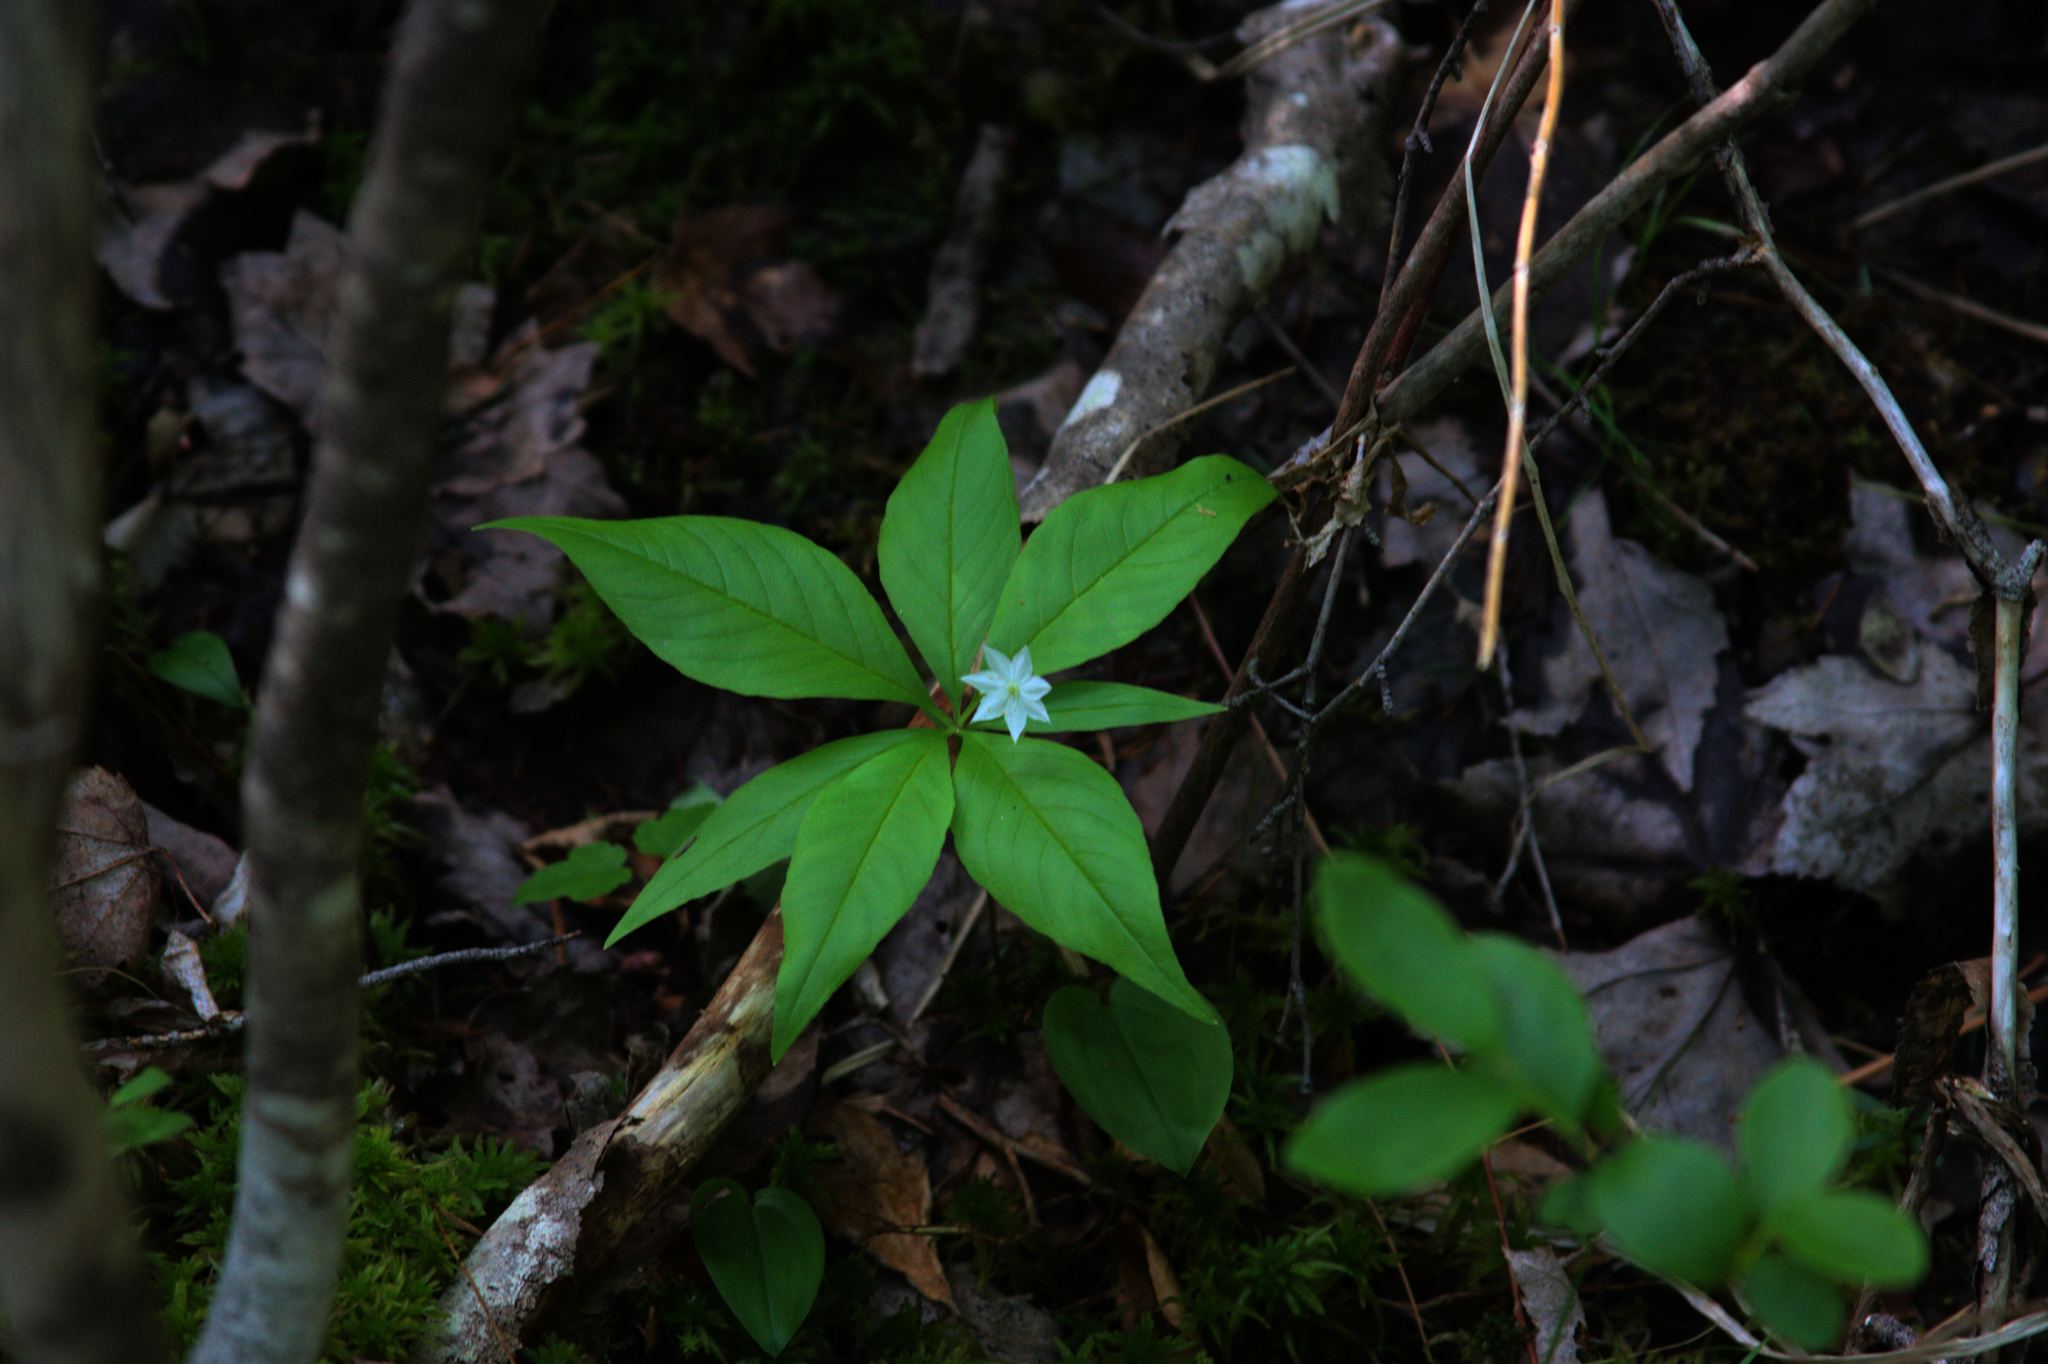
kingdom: Plantae
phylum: Tracheophyta
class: Magnoliopsida
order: Ericales
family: Primulaceae
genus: Lysimachia
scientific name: Lysimachia borealis
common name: American starflower
